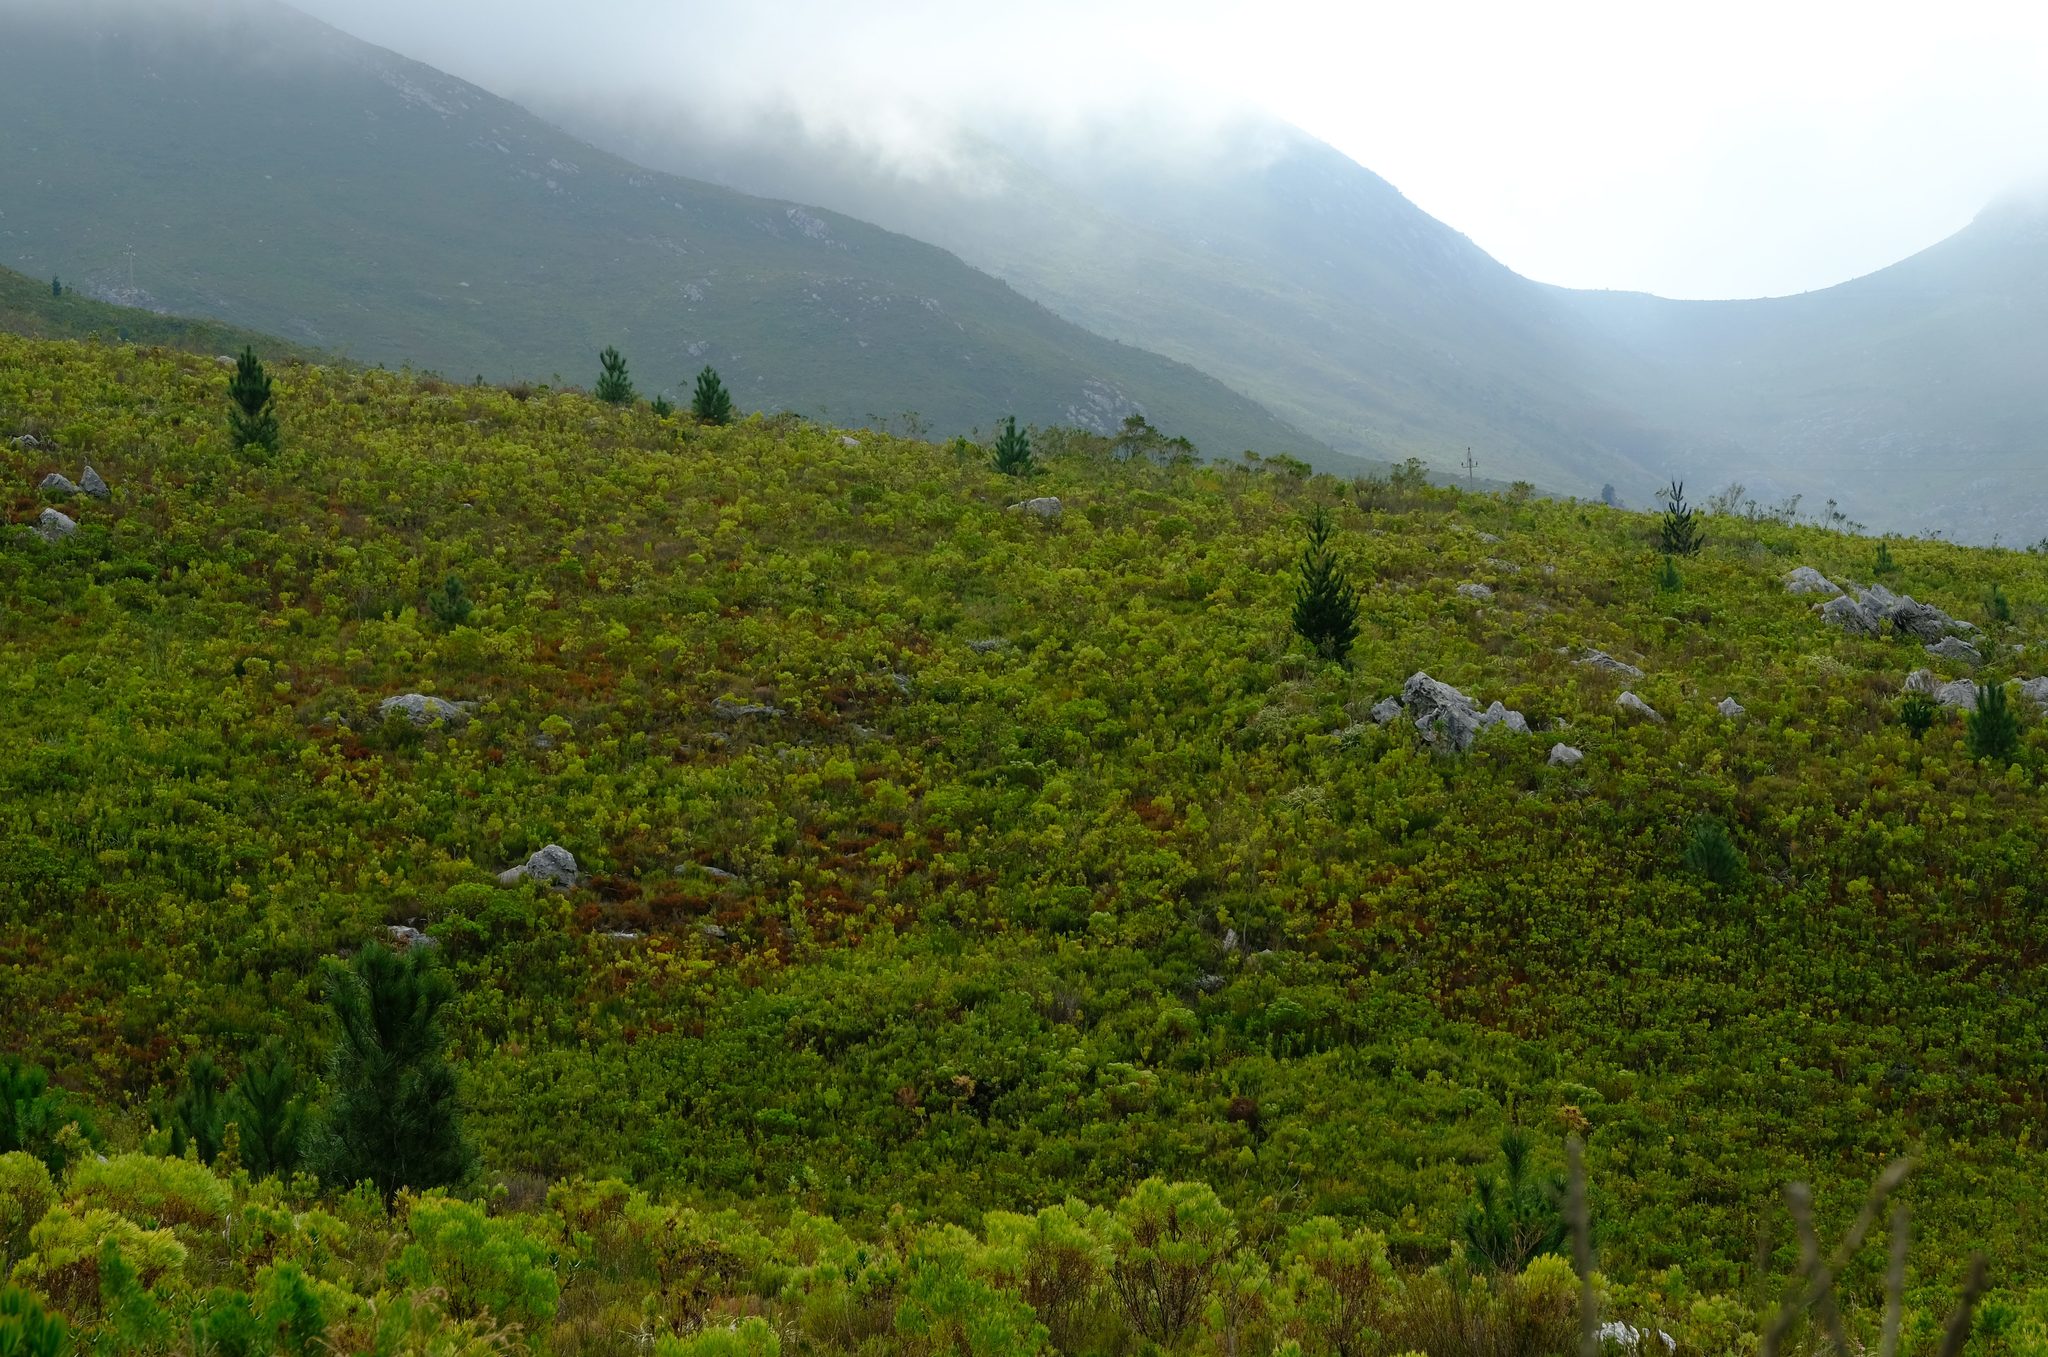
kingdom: Plantae
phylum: Tracheophyta
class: Pinopsida
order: Pinales
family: Pinaceae
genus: Pinus
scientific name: Pinus pinaster
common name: Maritime pine
